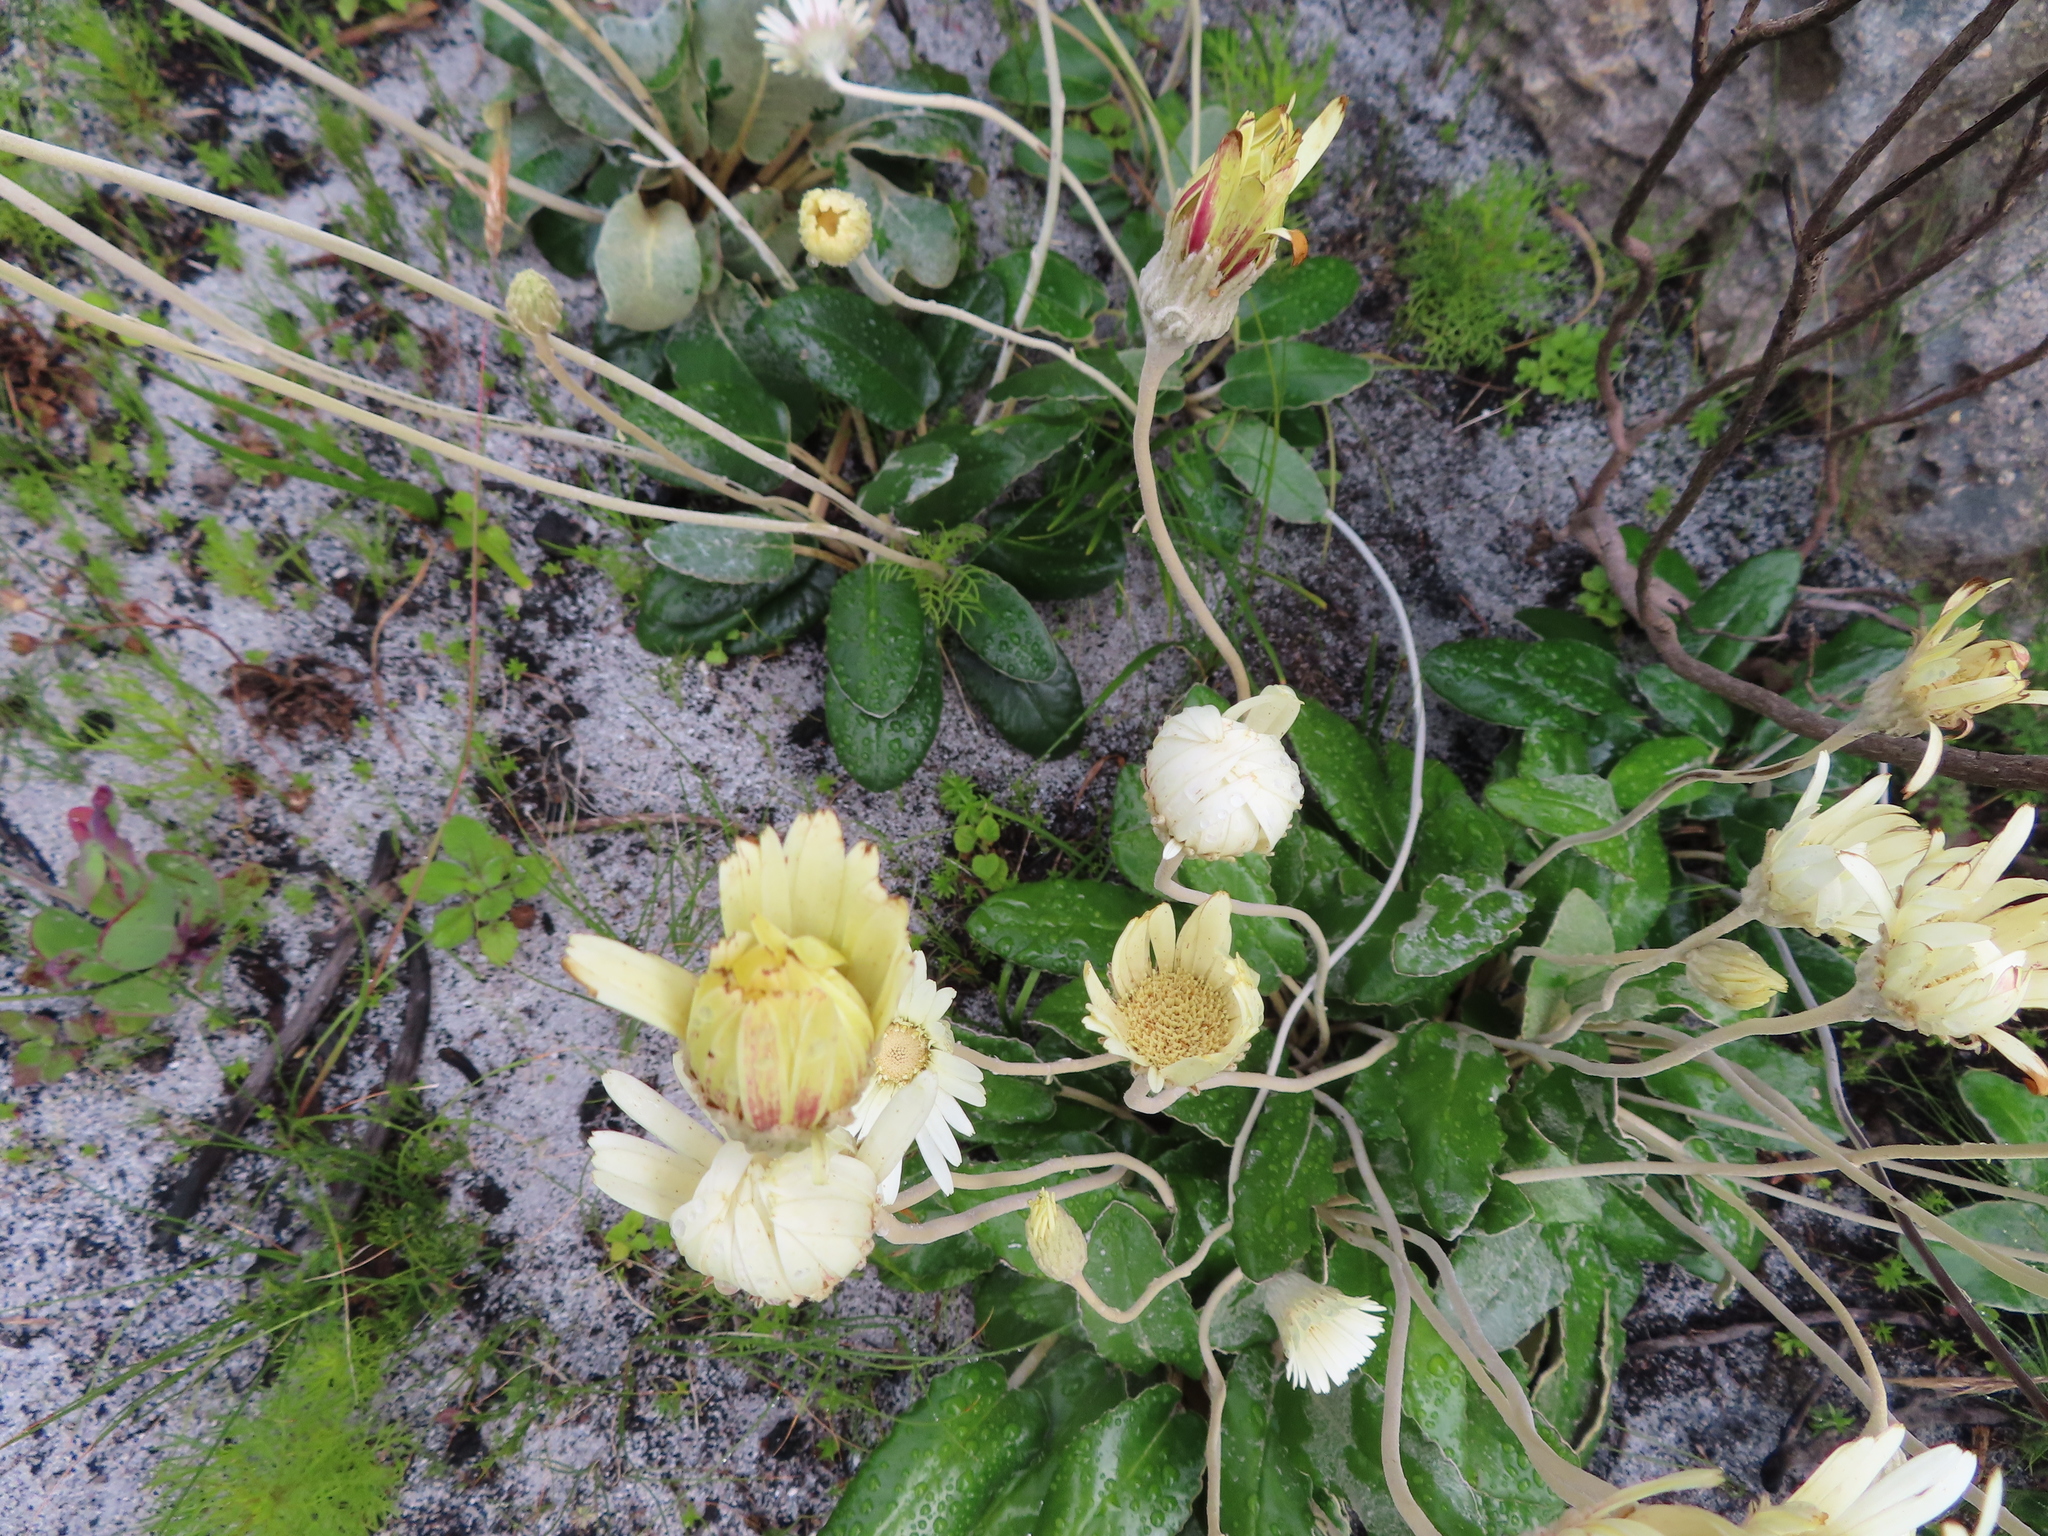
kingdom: Plantae
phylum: Tracheophyta
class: Magnoliopsida
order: Asterales
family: Asteraceae
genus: Gerbera
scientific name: Gerbera tomentosa
